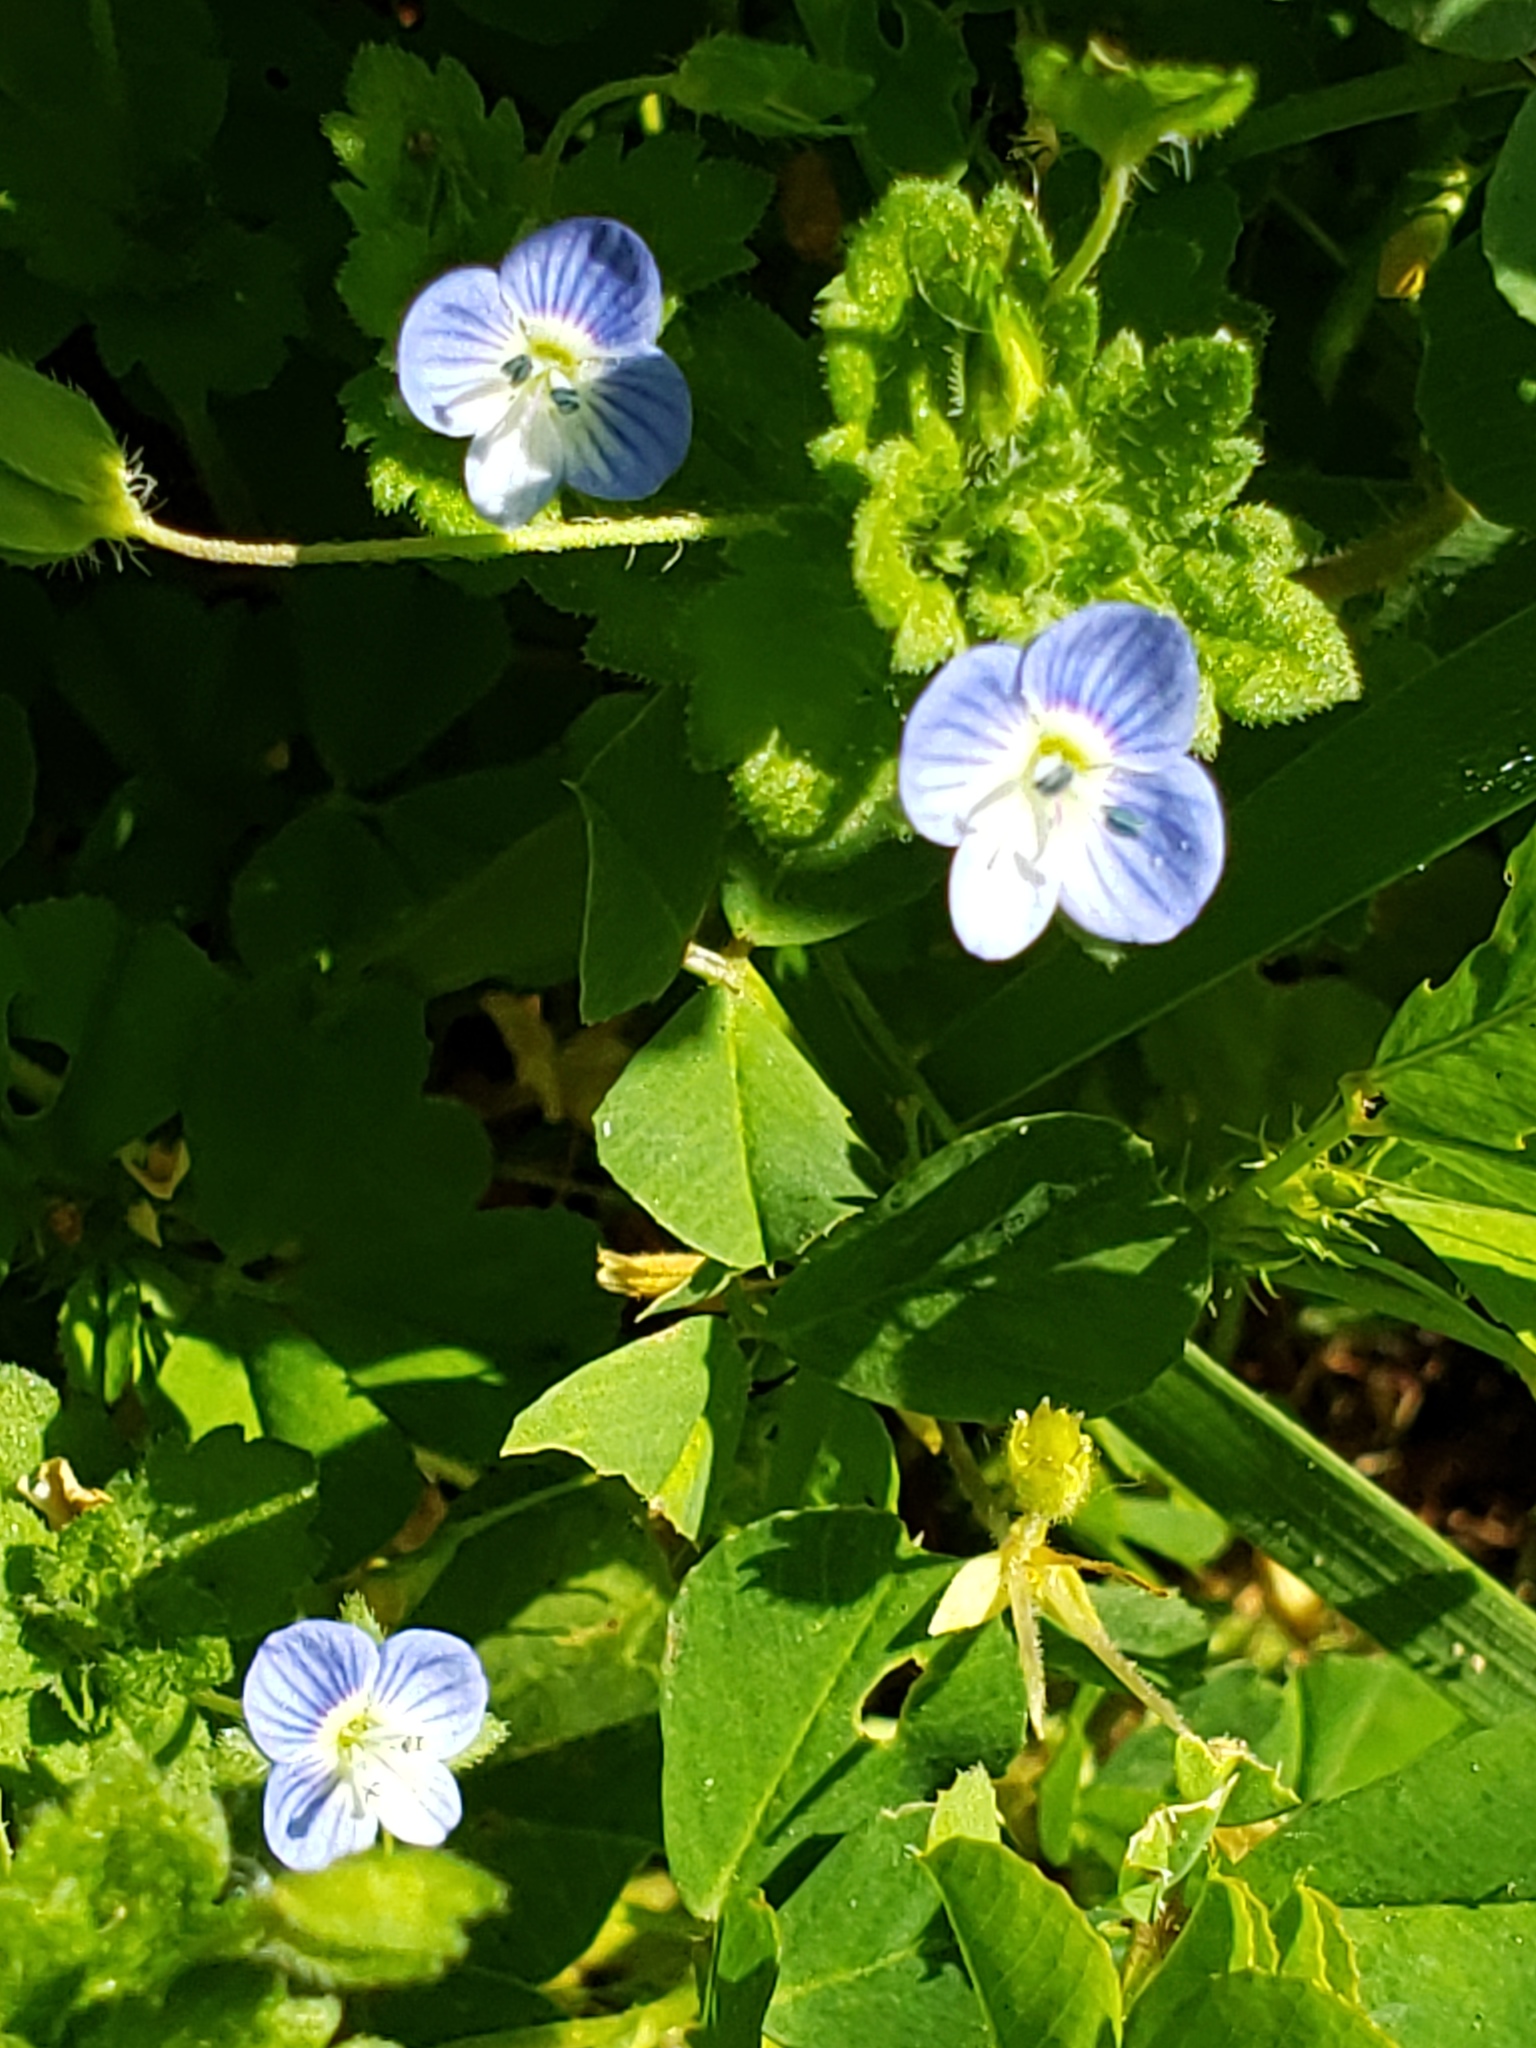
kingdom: Plantae
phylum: Tracheophyta
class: Magnoliopsida
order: Lamiales
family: Plantaginaceae
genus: Veronica
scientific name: Veronica persica
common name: Common field-speedwell
